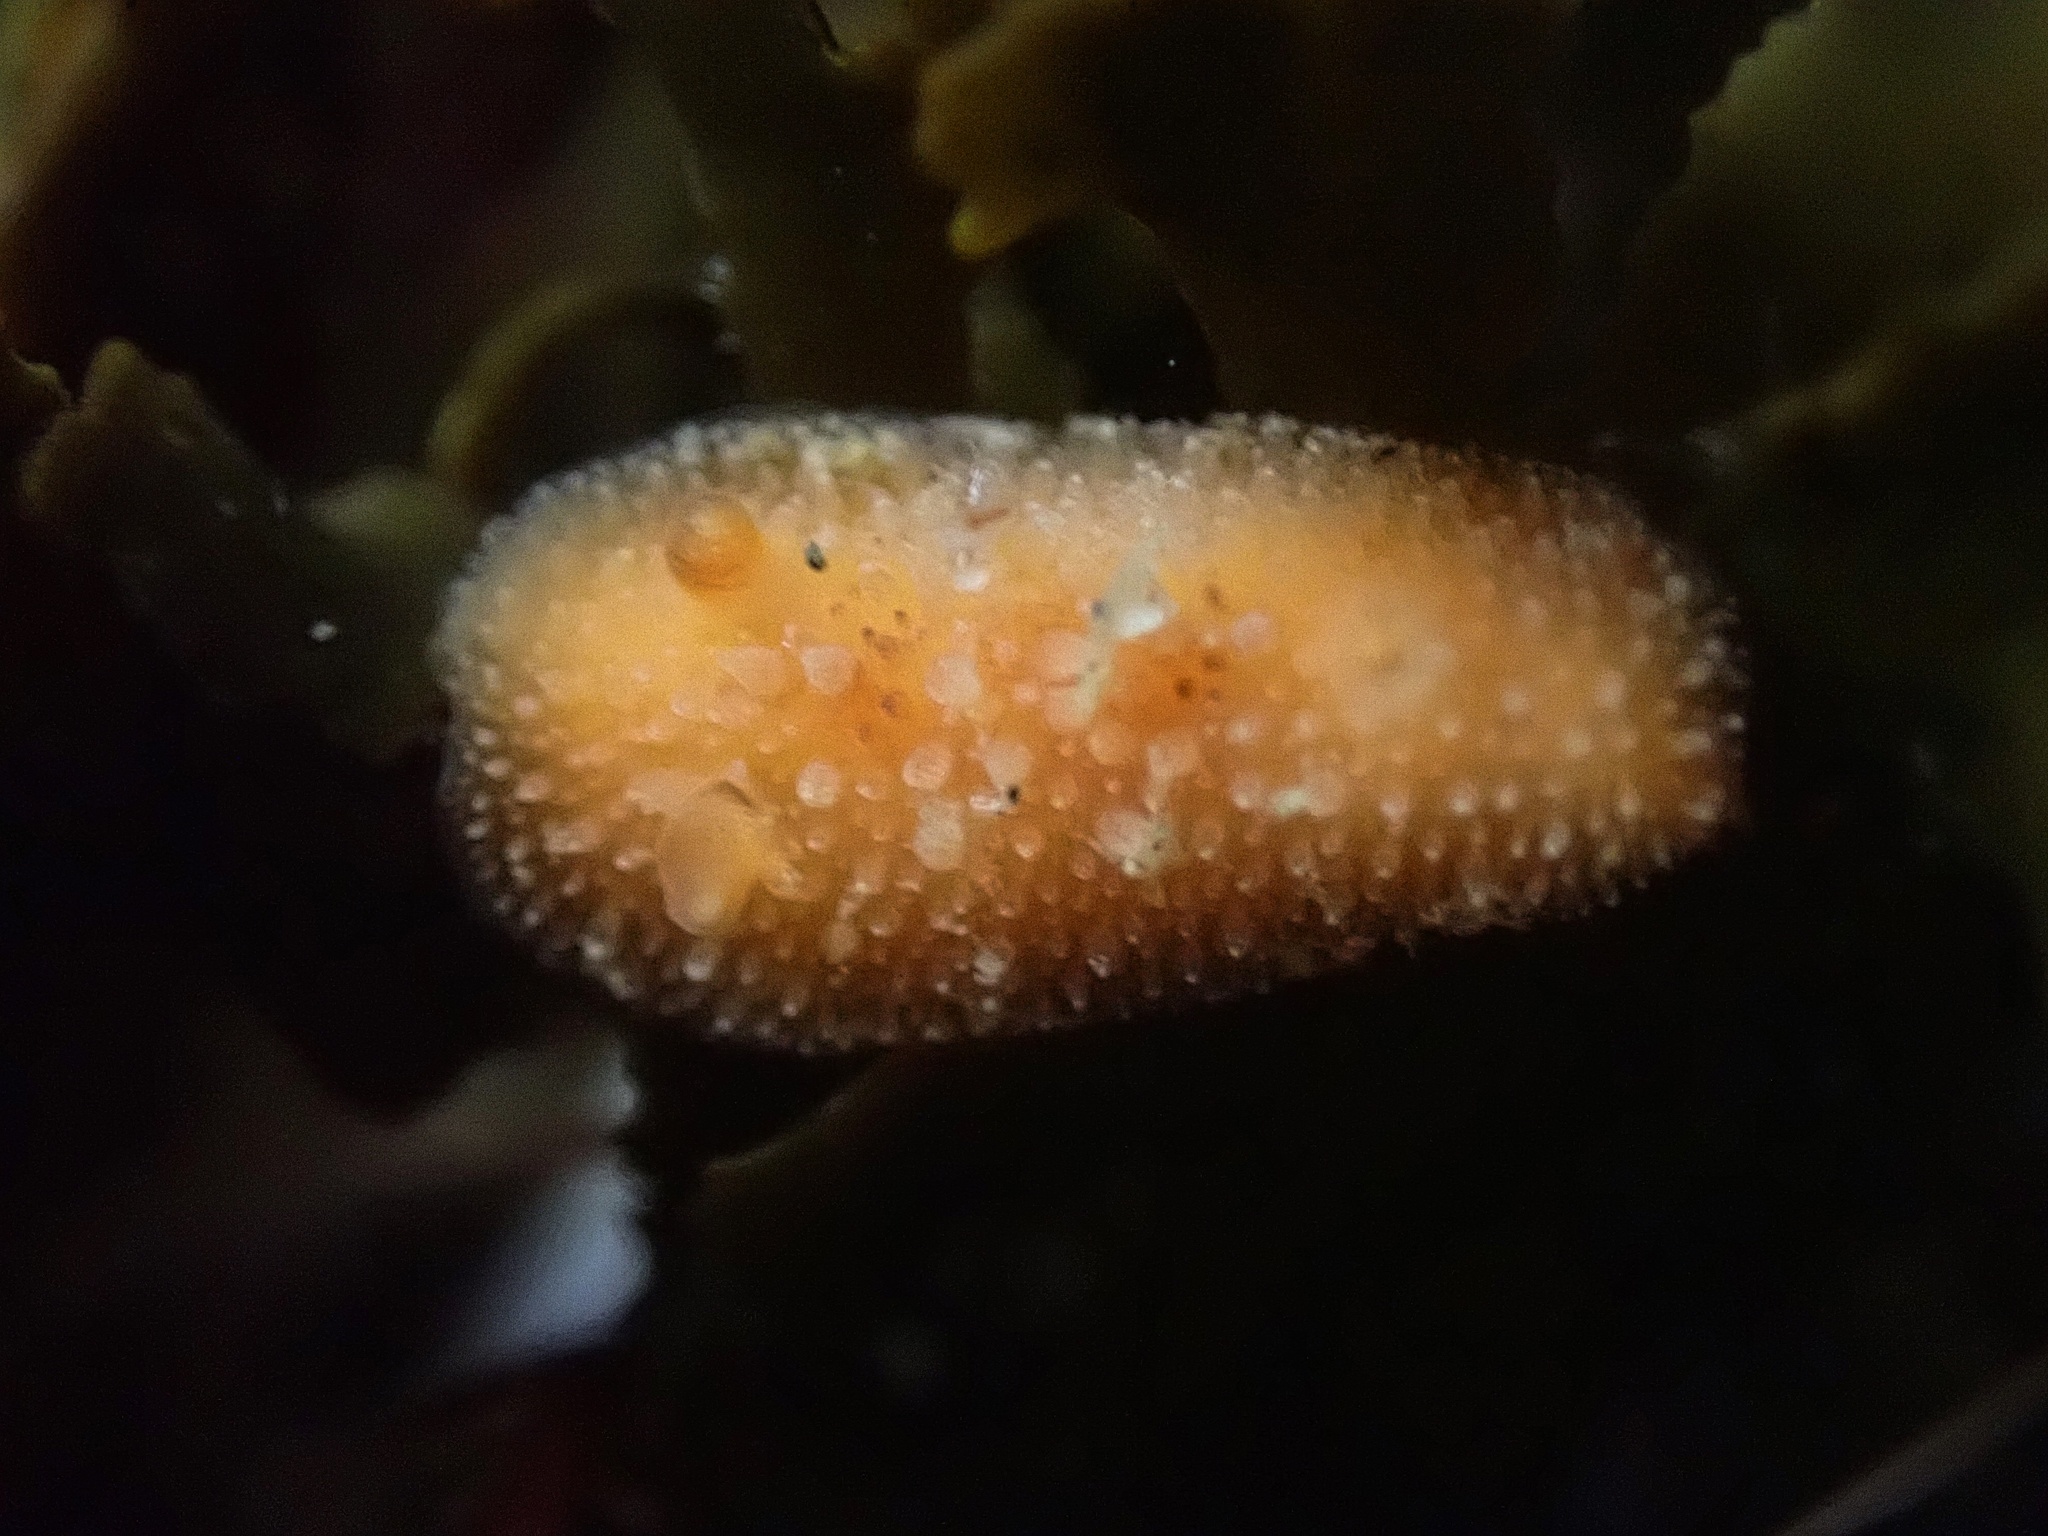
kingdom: Animalia
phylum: Mollusca
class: Gastropoda
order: Nudibranchia
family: Discodorididae
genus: Thordisa
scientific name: Thordisa bimaculata
